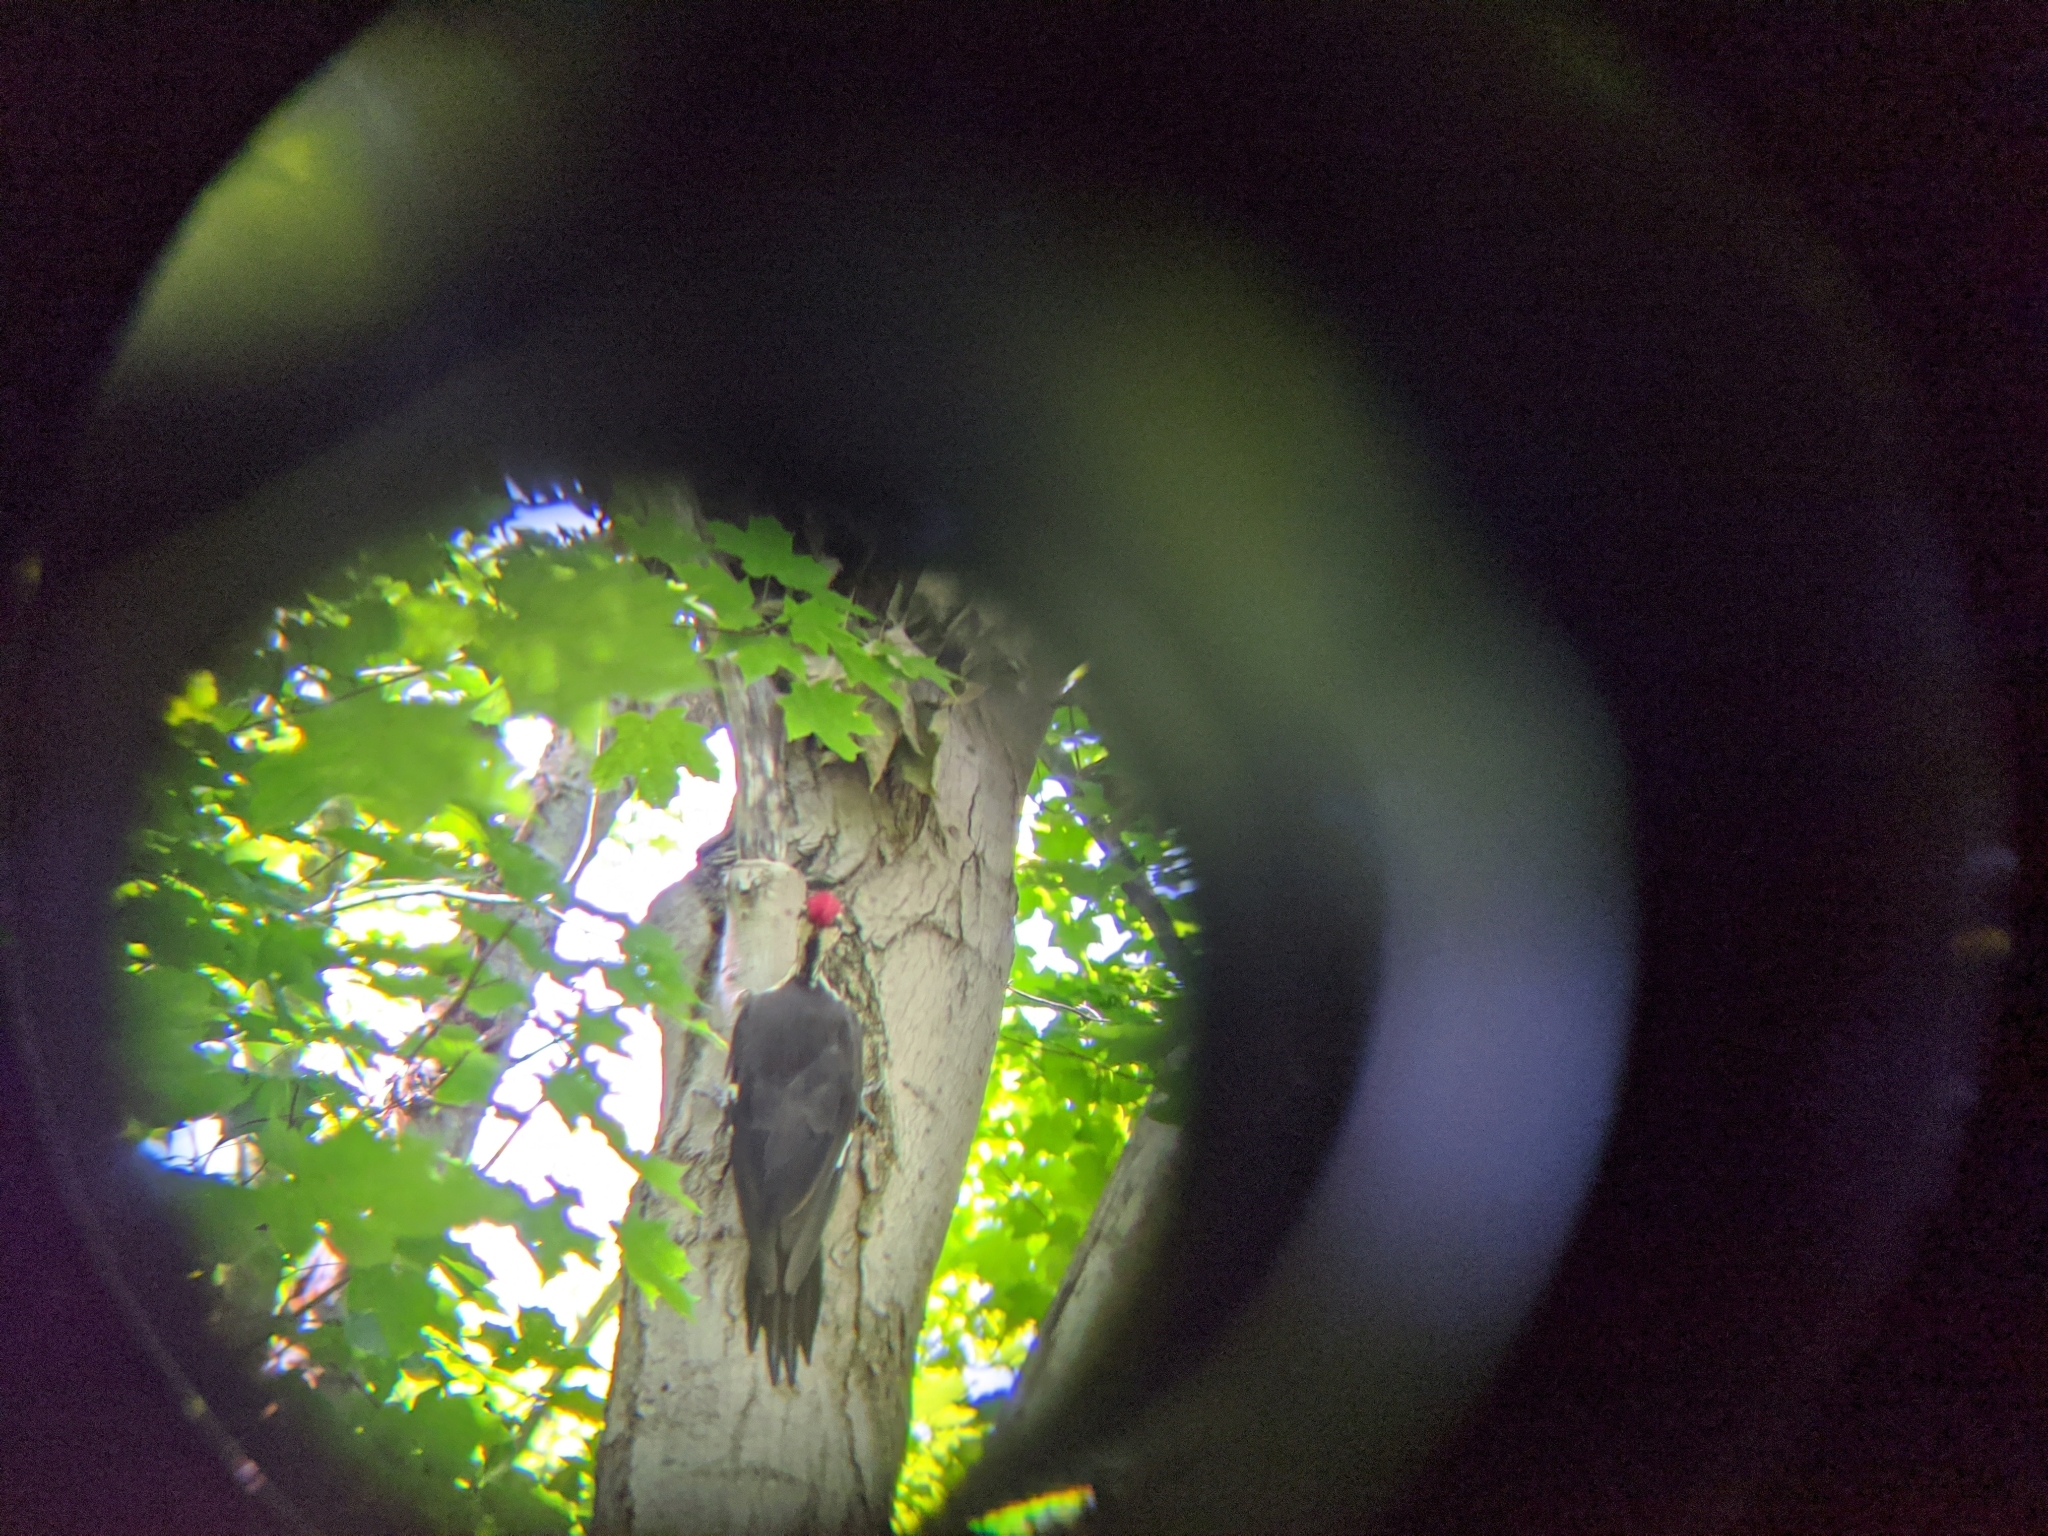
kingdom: Animalia
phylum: Chordata
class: Aves
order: Piciformes
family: Picidae
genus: Dryocopus
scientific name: Dryocopus pileatus
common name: Pileated woodpecker
